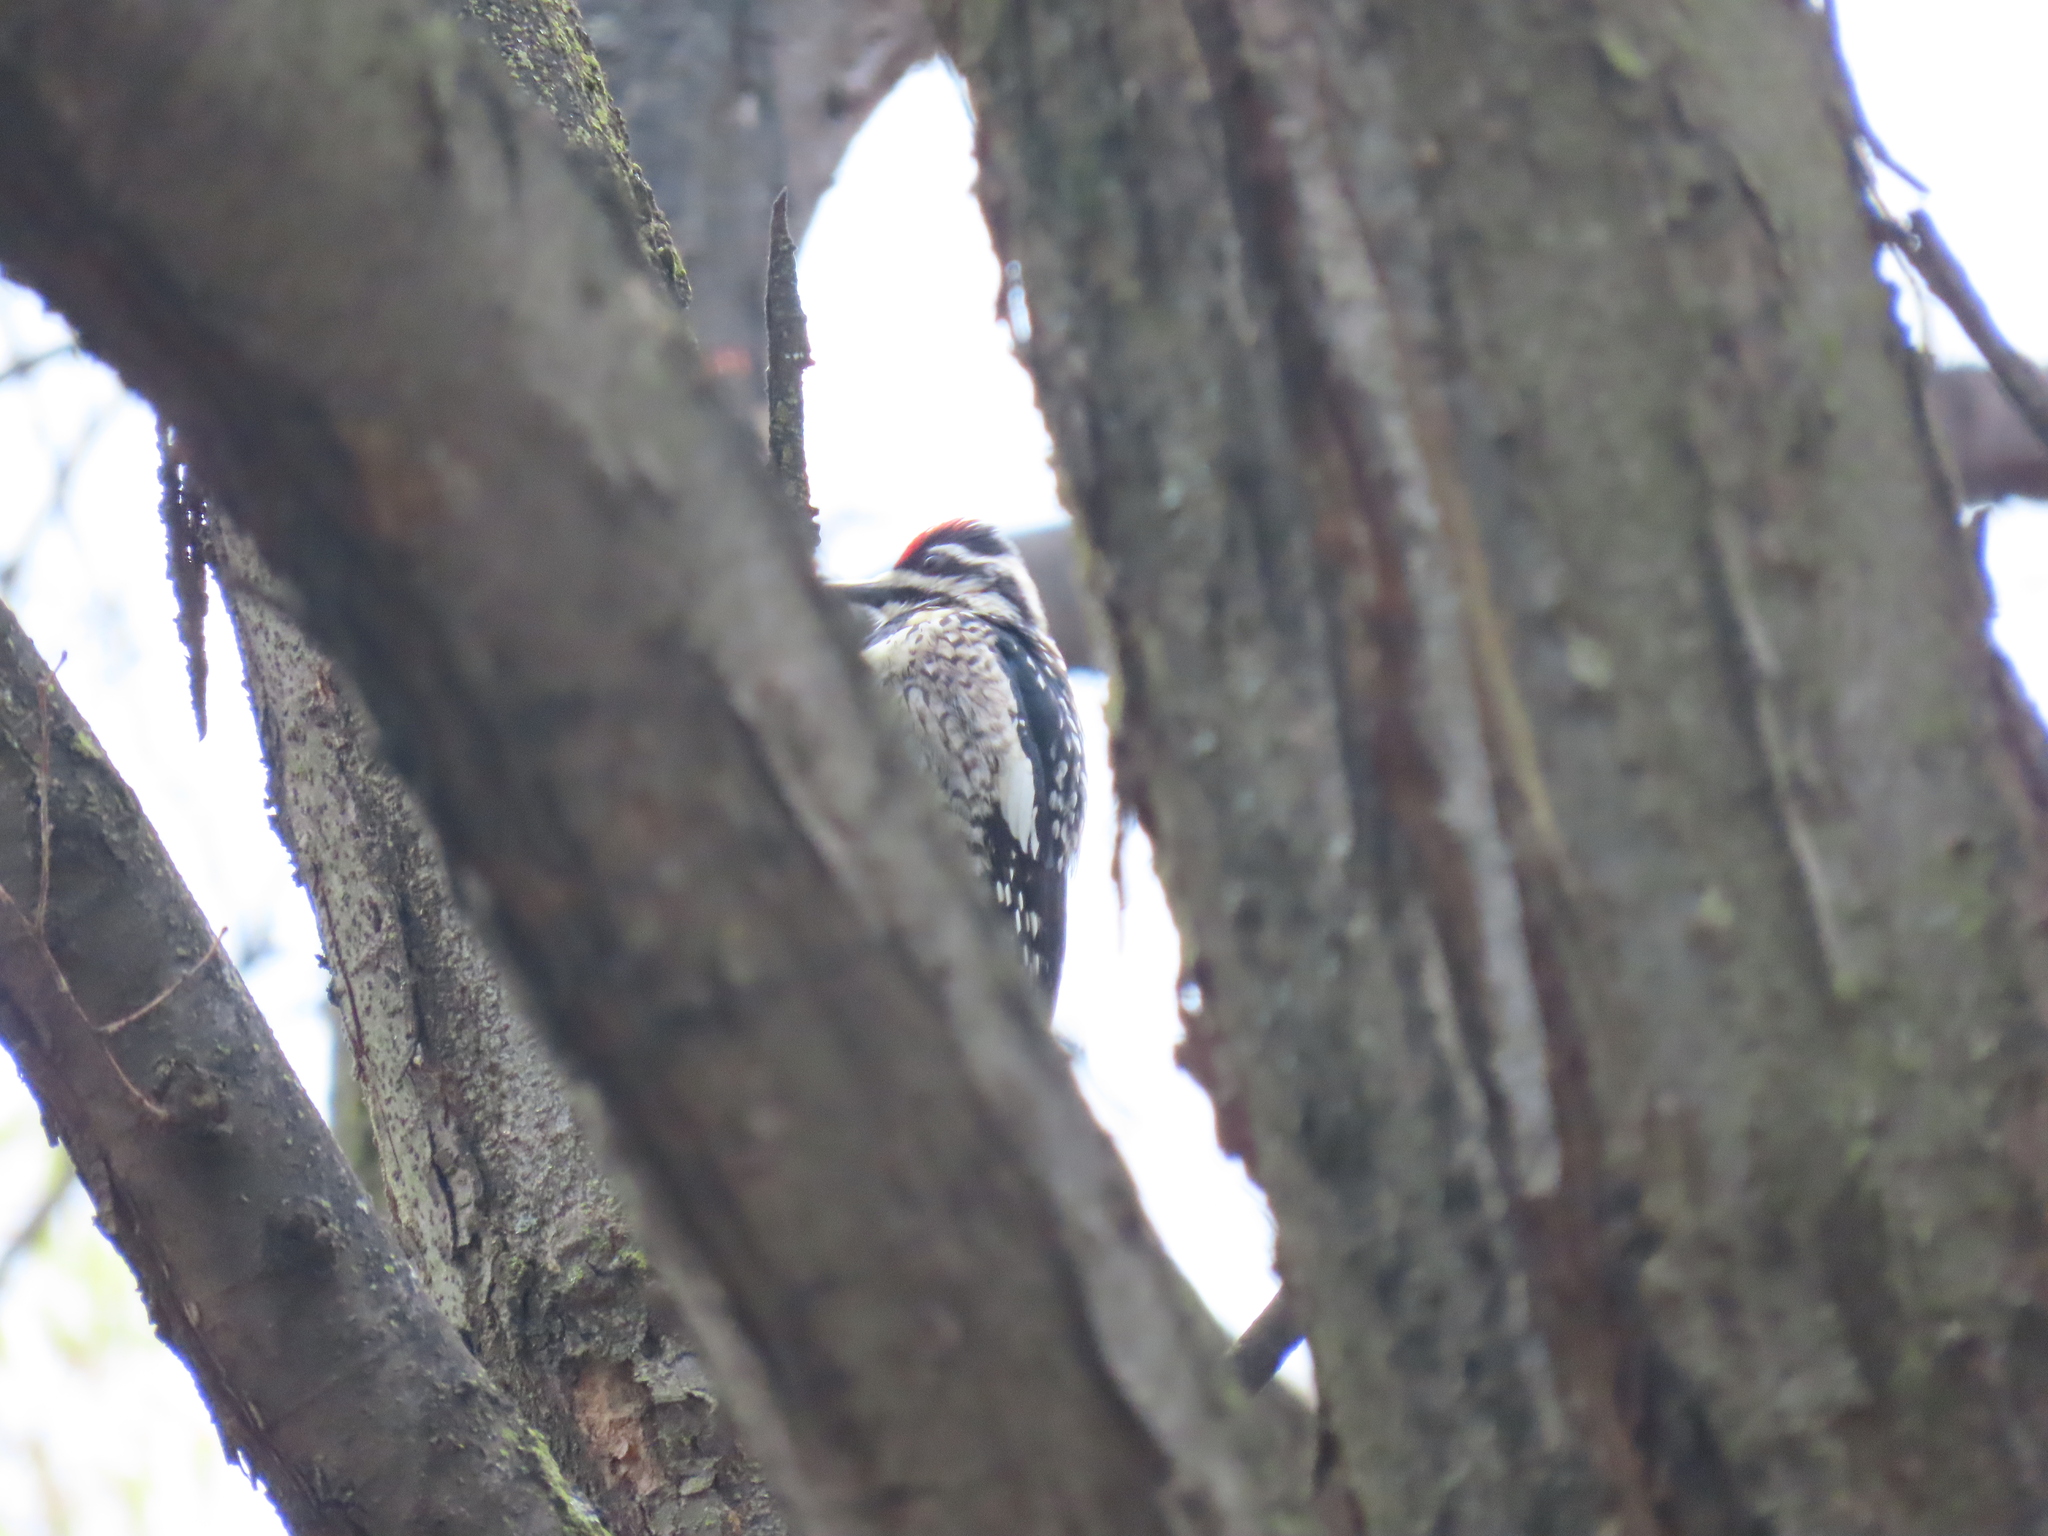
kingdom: Animalia
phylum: Chordata
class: Aves
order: Piciformes
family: Picidae
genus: Sphyrapicus
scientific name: Sphyrapicus varius
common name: Yellow-bellied sapsucker
